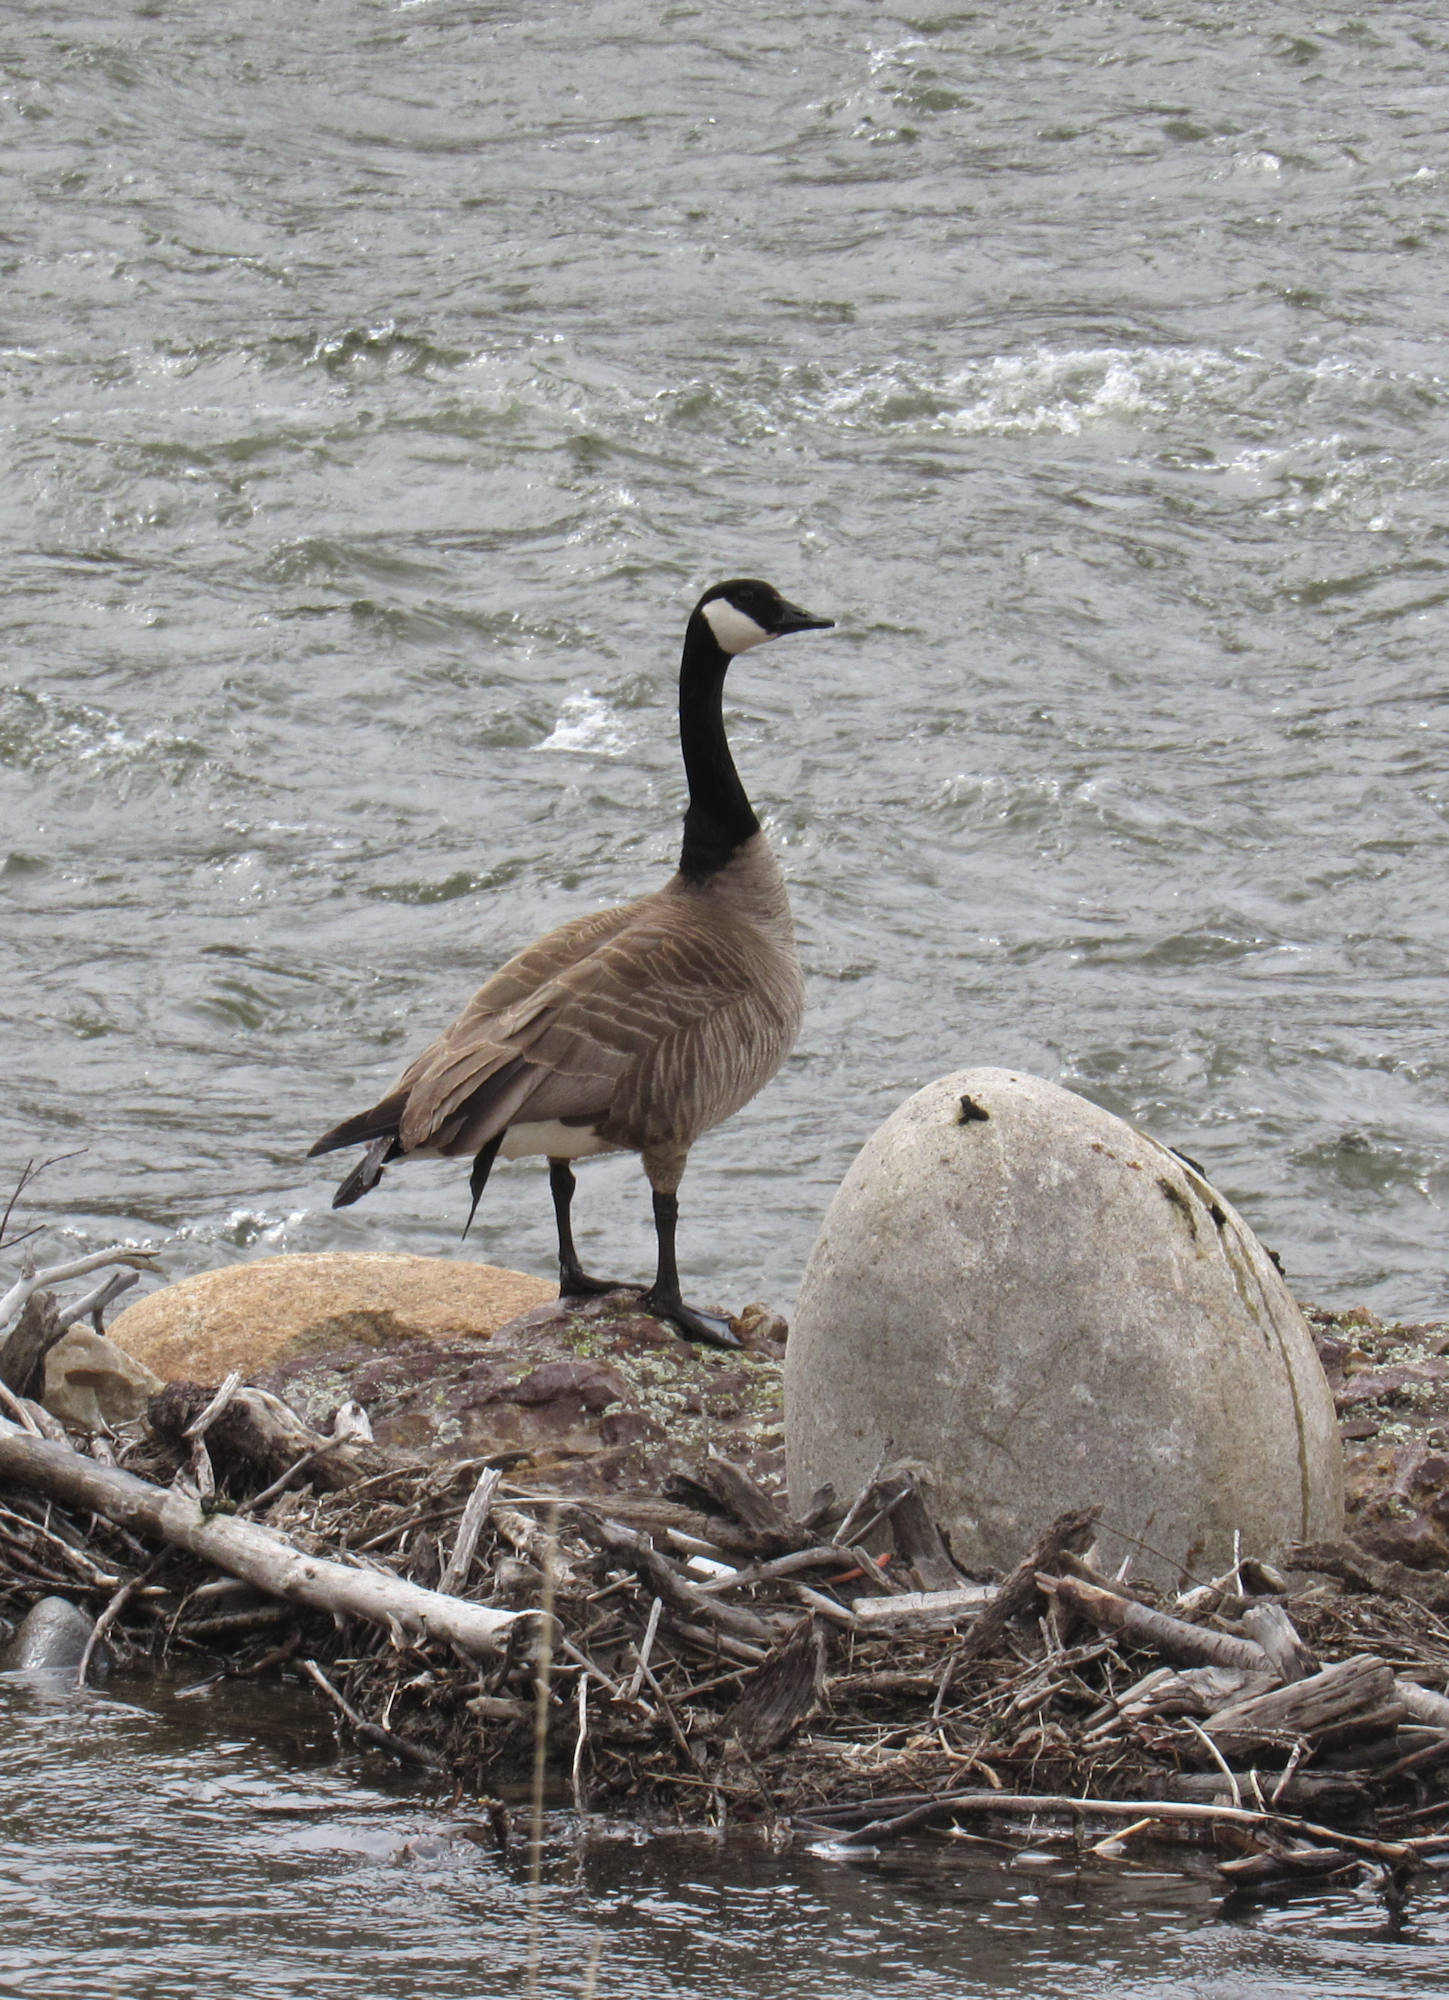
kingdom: Animalia
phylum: Chordata
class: Aves
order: Anseriformes
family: Anatidae
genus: Branta
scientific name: Branta canadensis
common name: Canada goose
